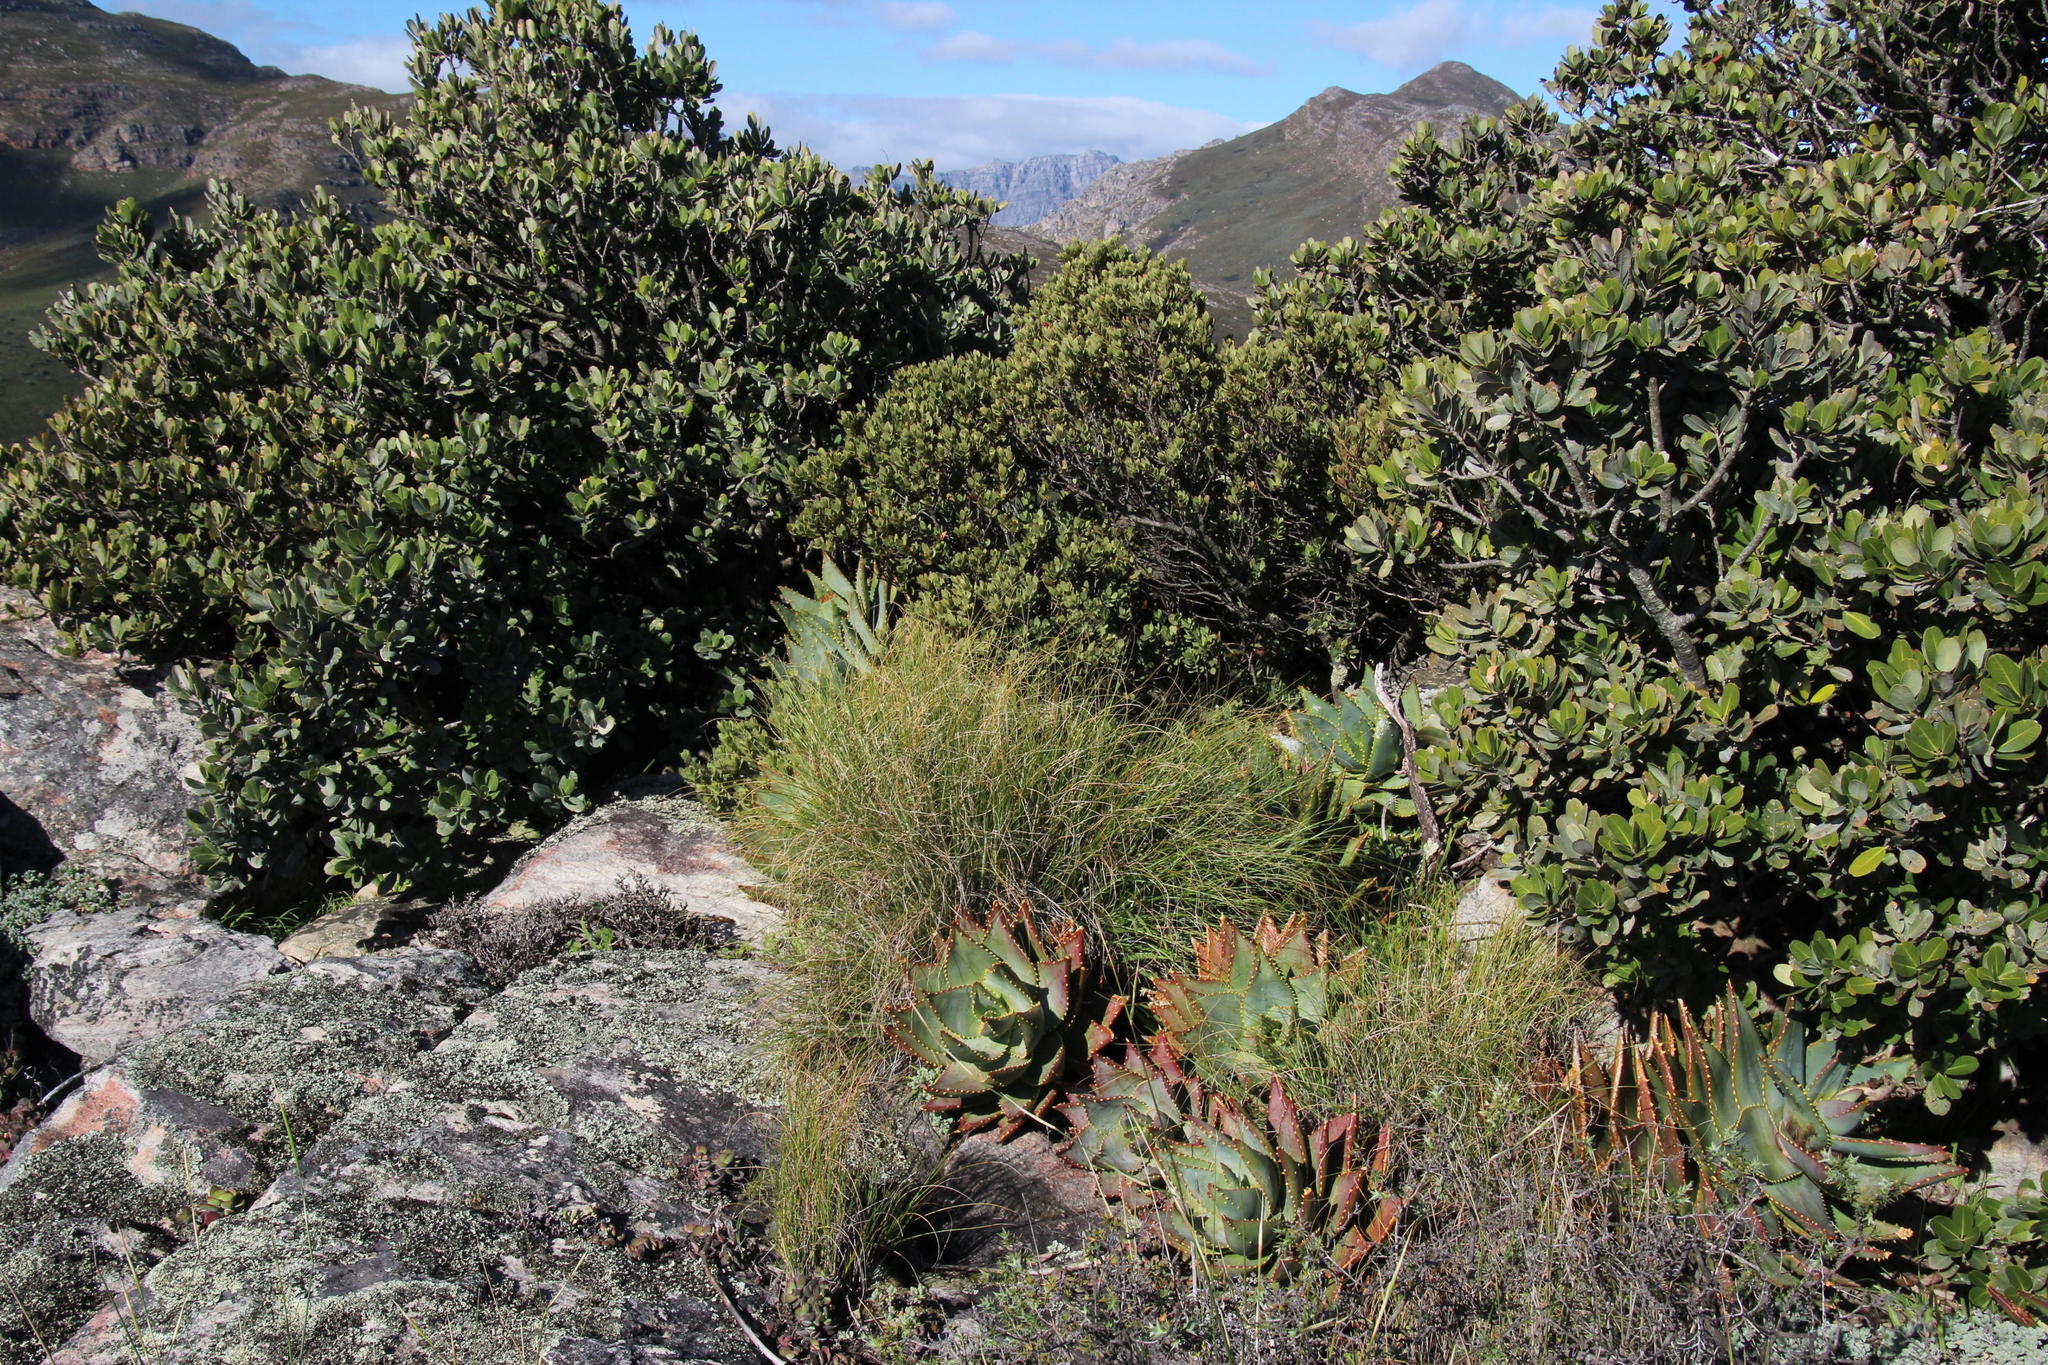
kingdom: Plantae
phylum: Tracheophyta
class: Liliopsida
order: Asparagales
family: Asphodelaceae
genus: Aloe
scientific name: Aloe perfoliata
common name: Mitra aloe
